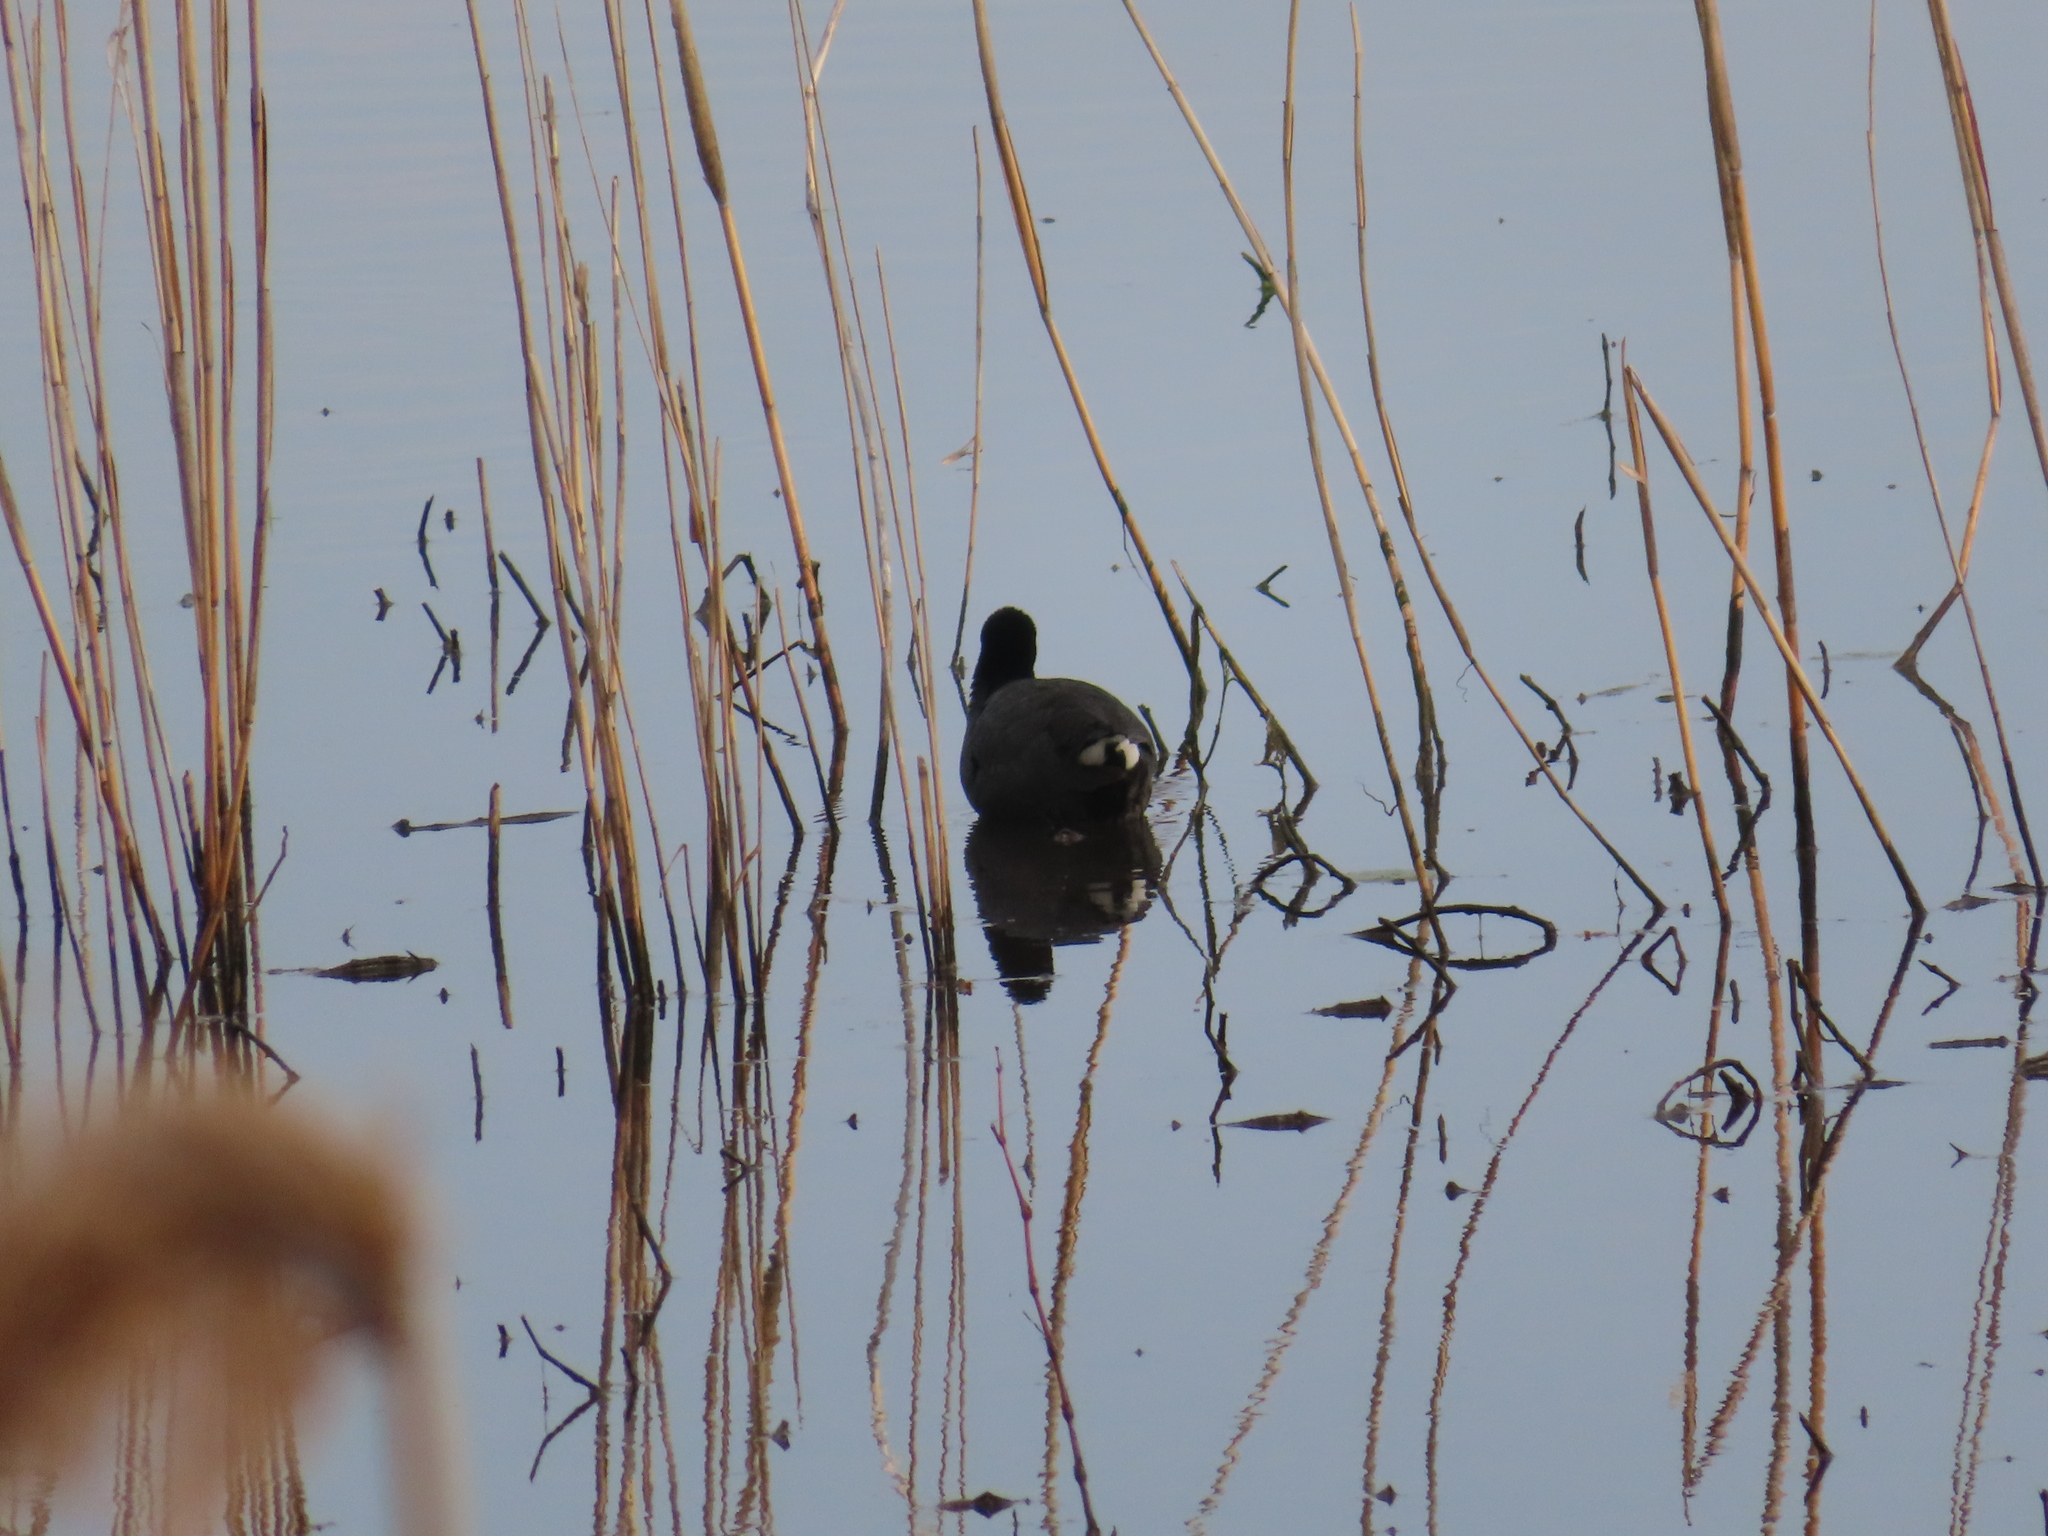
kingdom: Animalia
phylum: Chordata
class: Aves
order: Gruiformes
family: Rallidae
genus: Fulica
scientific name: Fulica americana
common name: American coot
